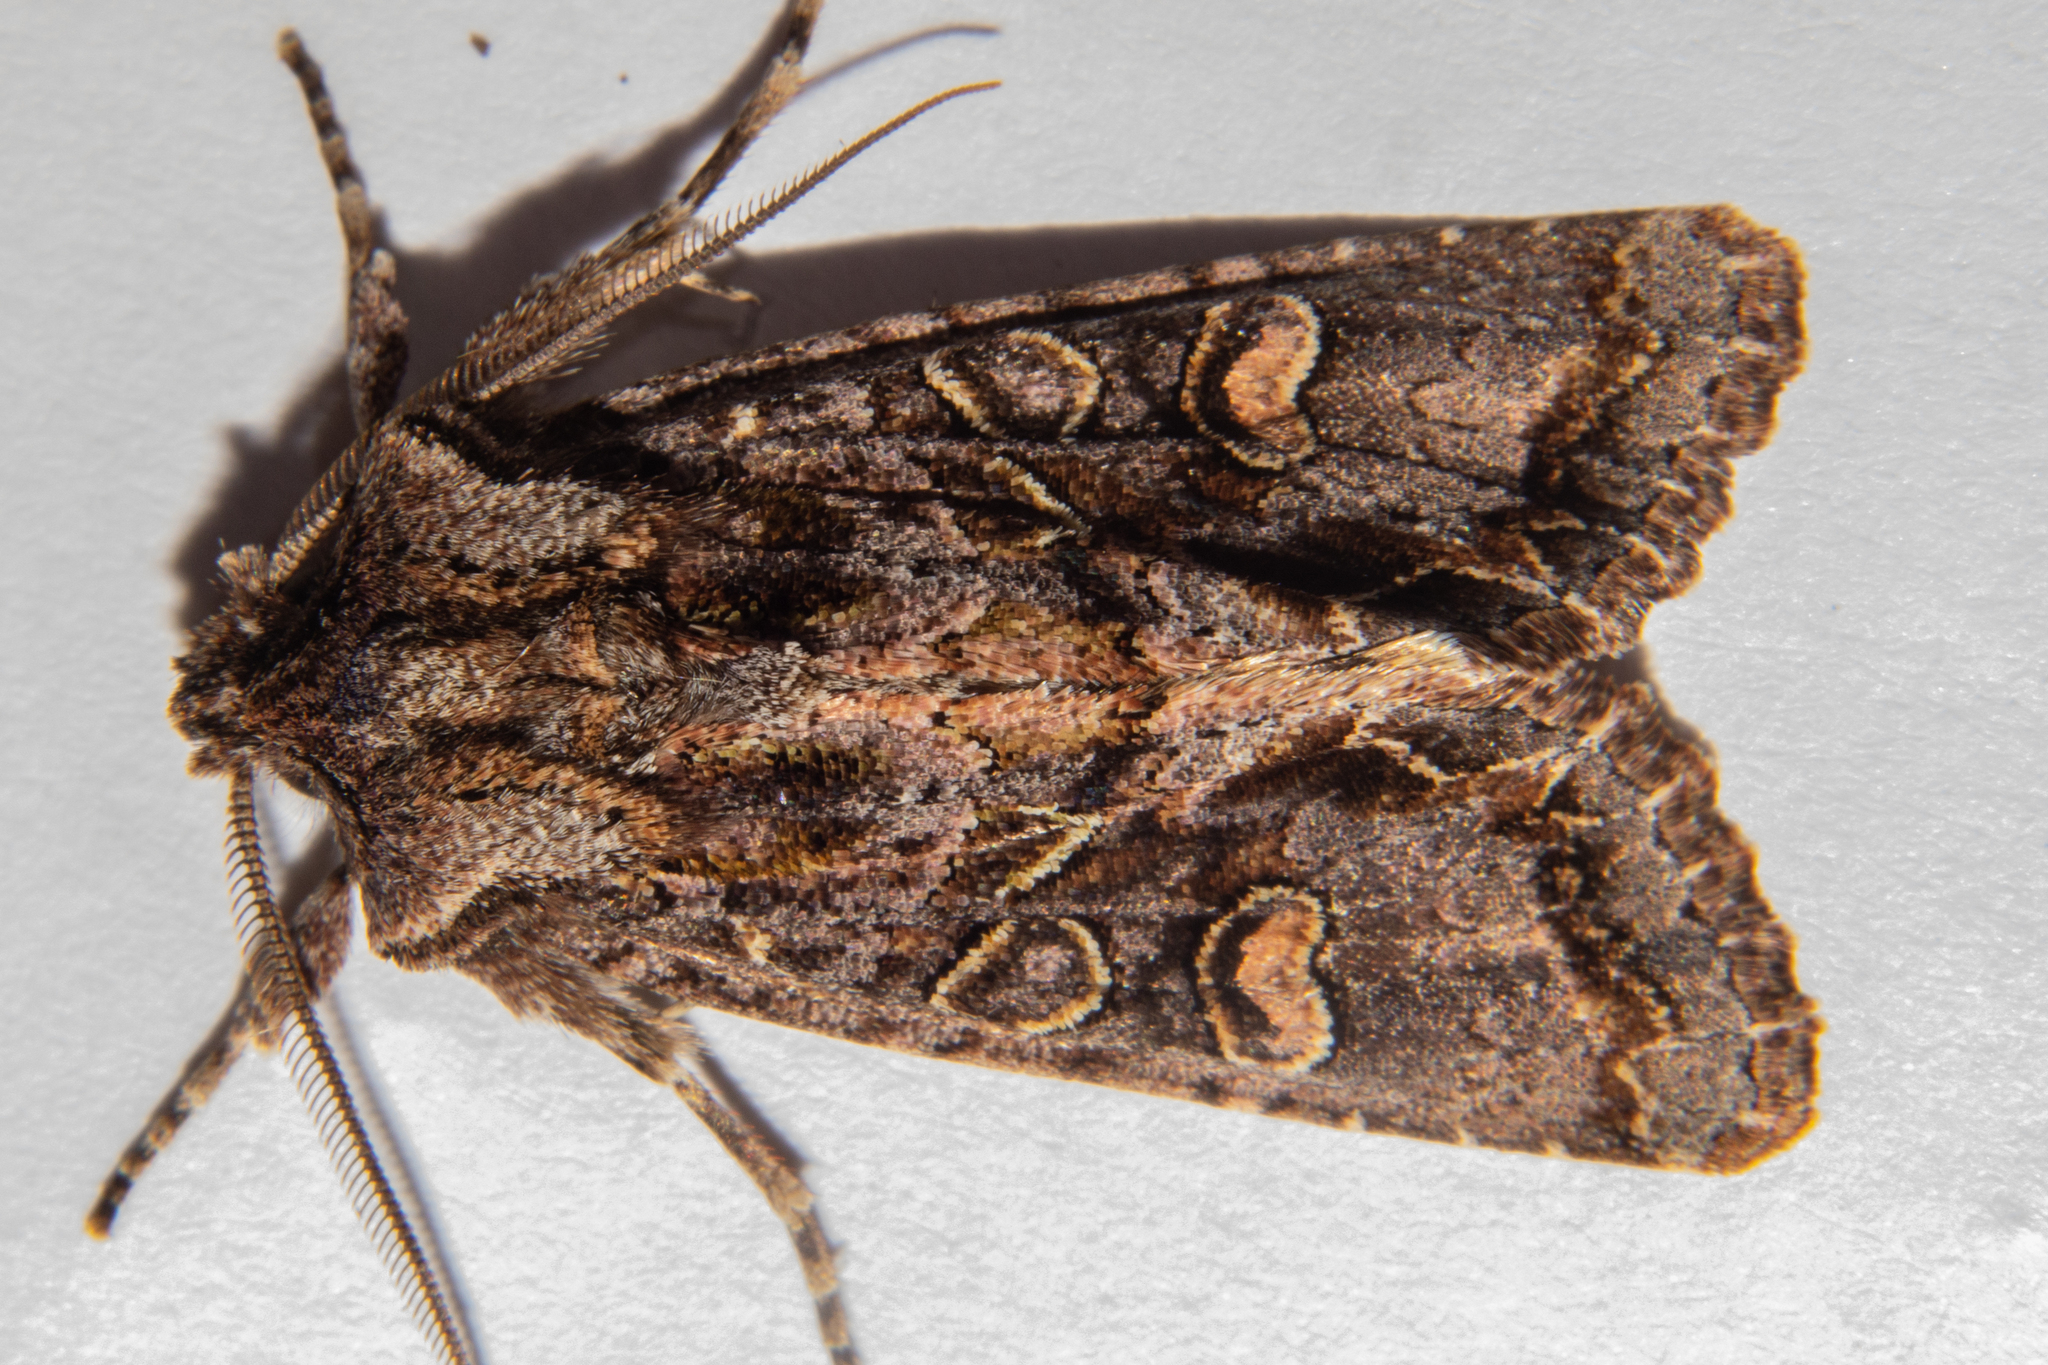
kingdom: Animalia
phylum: Arthropoda
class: Insecta
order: Lepidoptera
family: Noctuidae
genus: Ichneutica
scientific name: Ichneutica insignis
